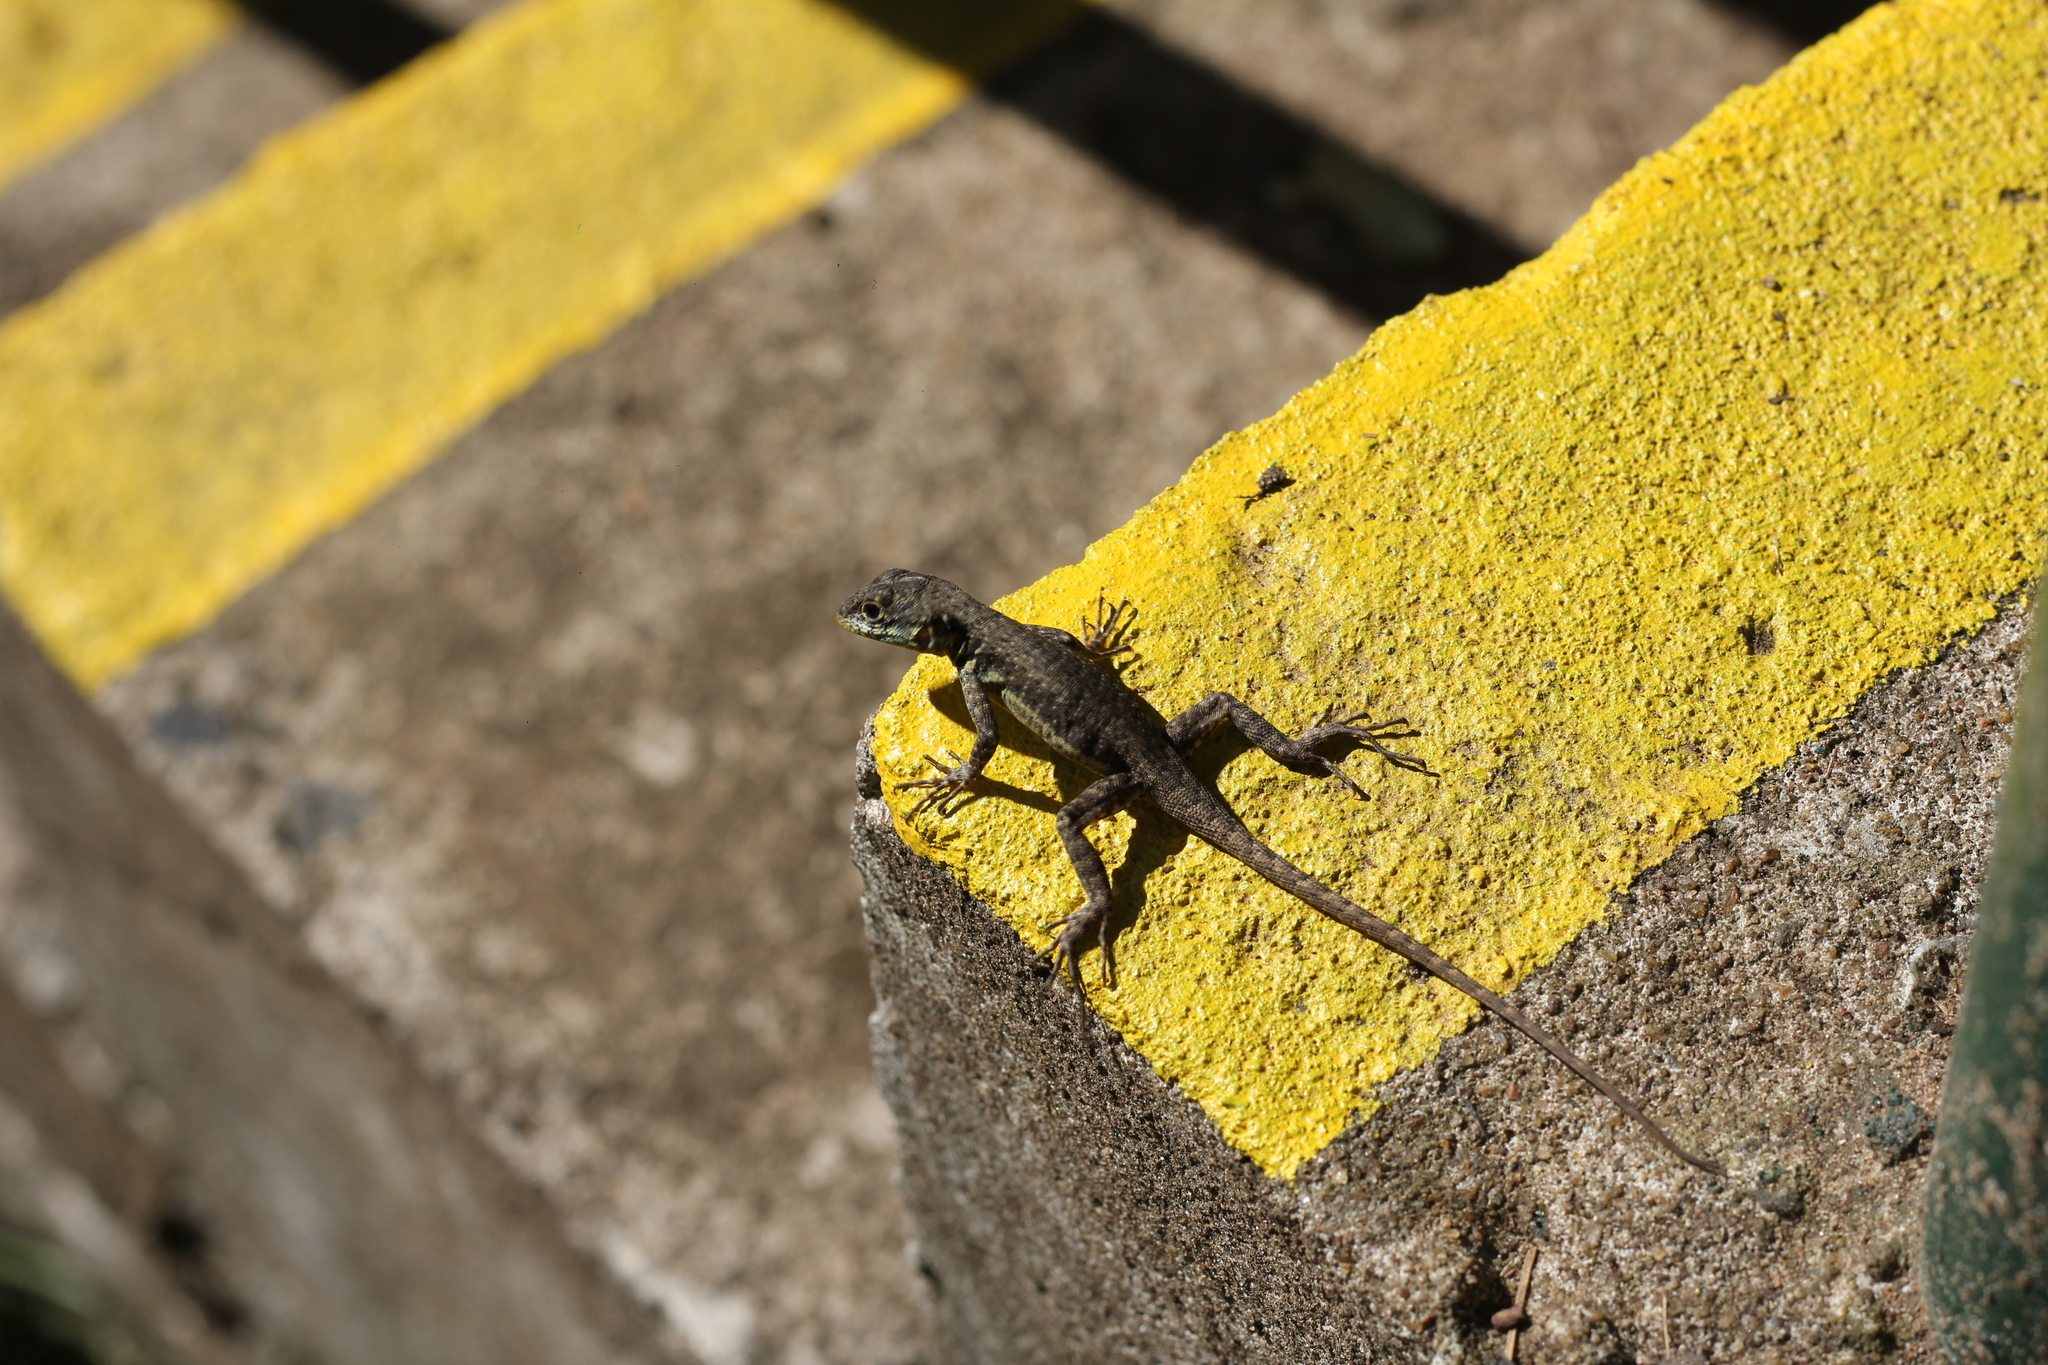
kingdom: Animalia
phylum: Chordata
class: Squamata
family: Tropiduridae
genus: Tropidurus
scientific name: Tropidurus catalanensis
